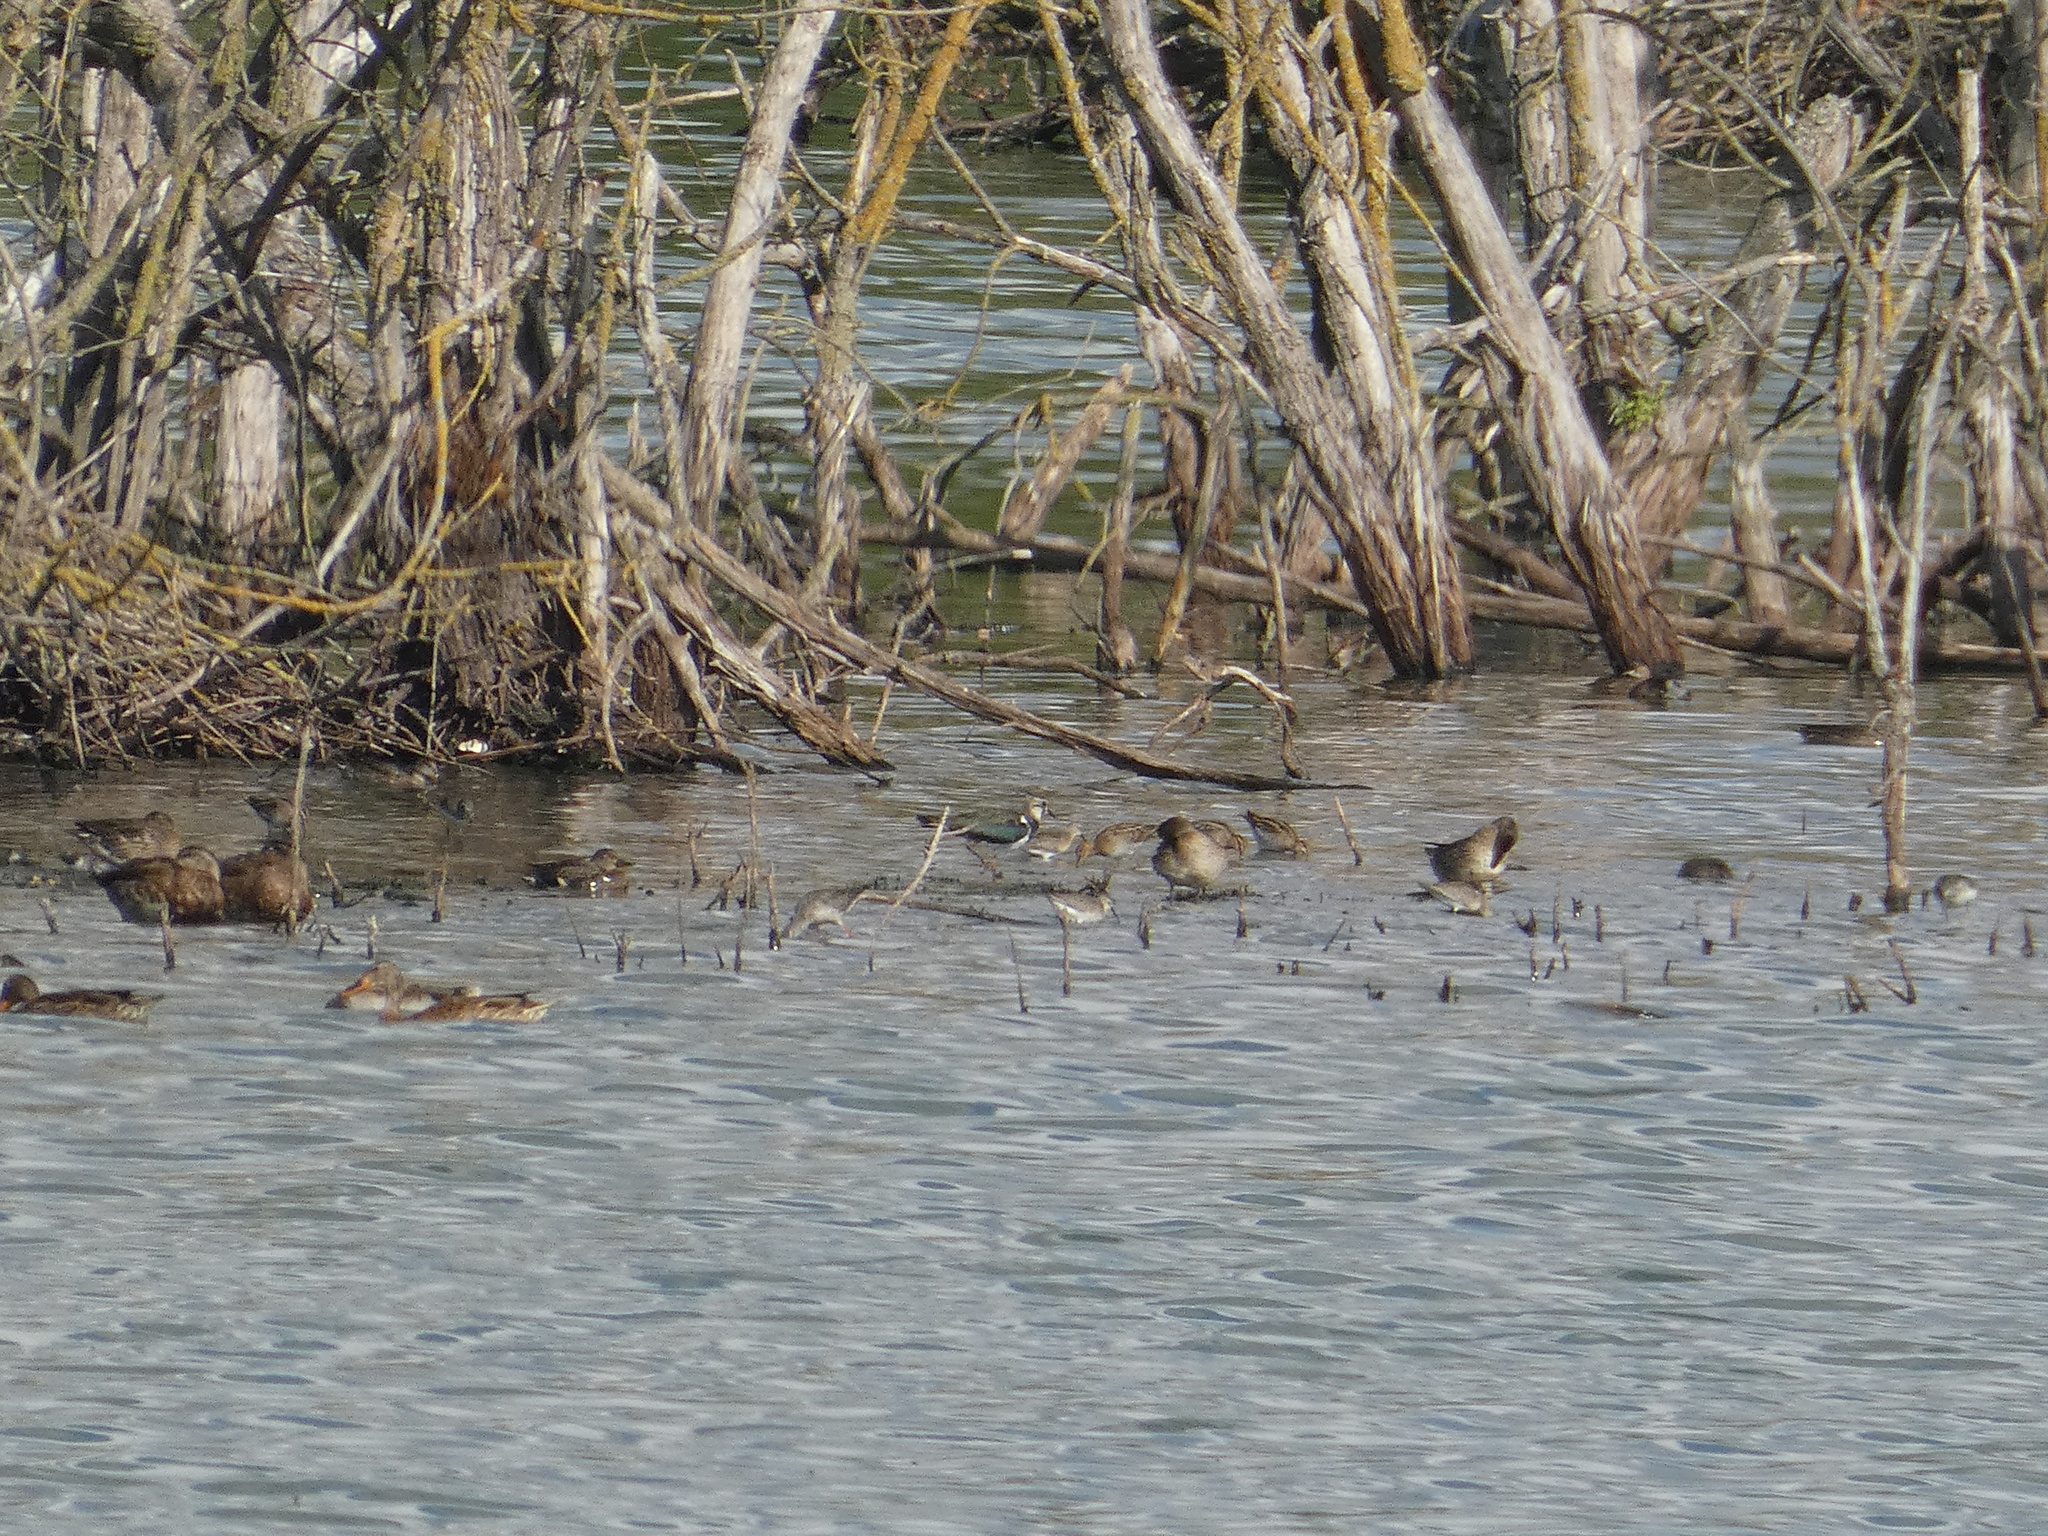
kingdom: Animalia
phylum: Chordata
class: Aves
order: Charadriiformes
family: Scolopacidae
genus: Calidris
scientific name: Calidris ferruginea
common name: Curlew sandpiper
